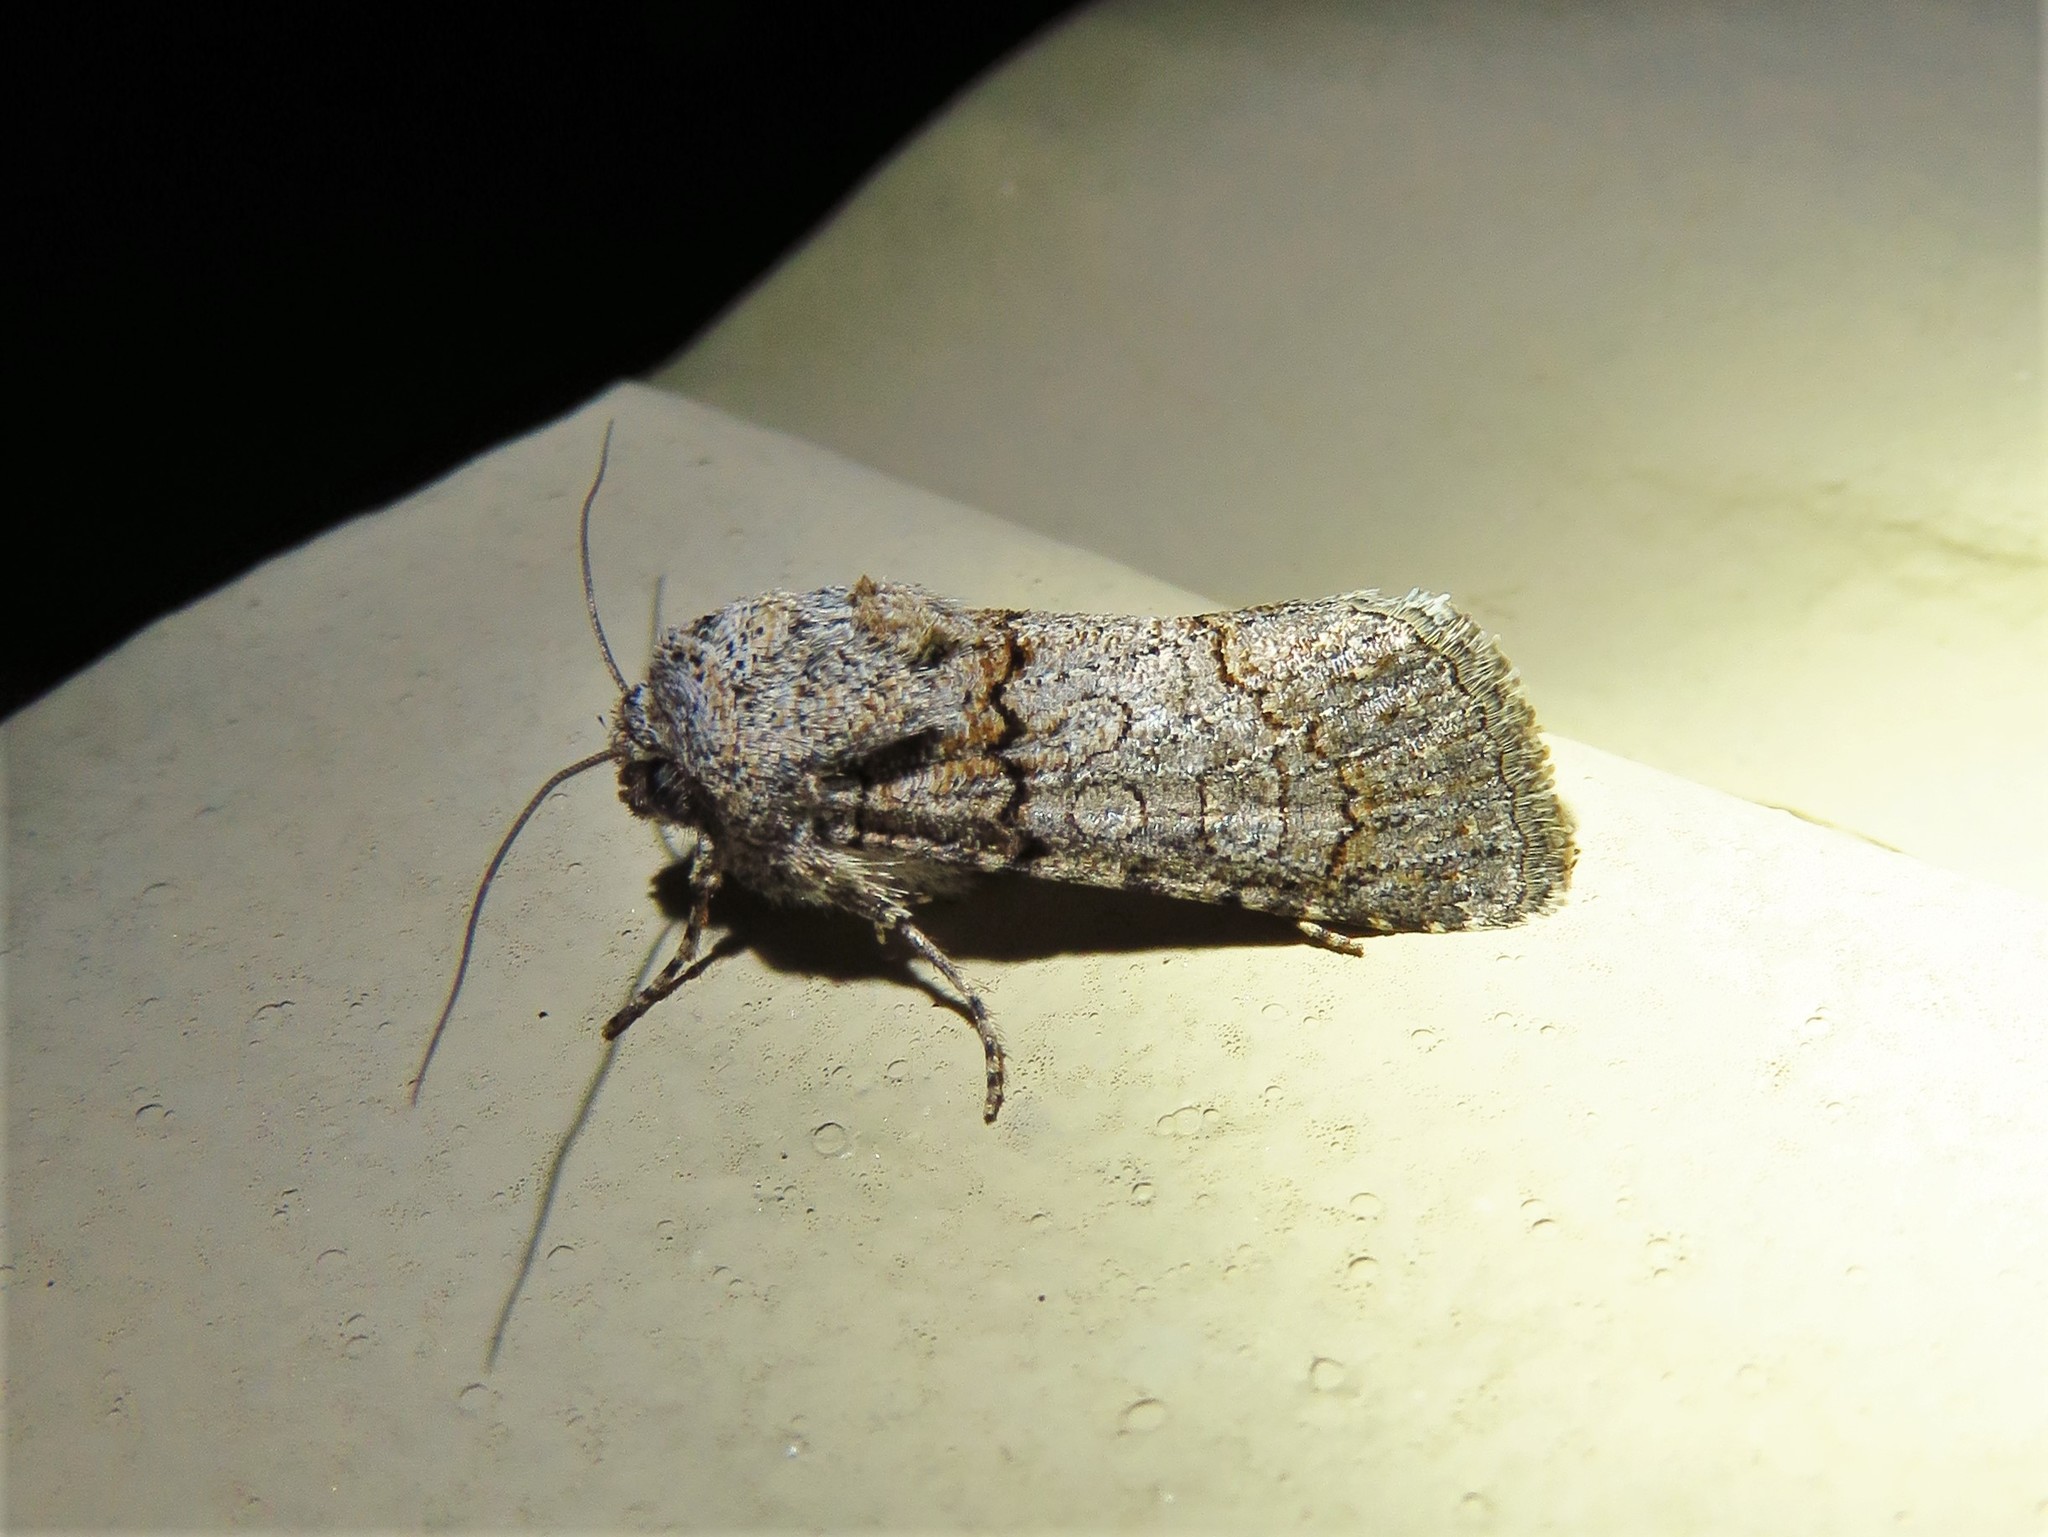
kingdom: Animalia
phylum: Arthropoda
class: Insecta
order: Lepidoptera
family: Noctuidae
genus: Sympistis
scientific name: Sympistis perscripta
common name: Scribbled sallow
